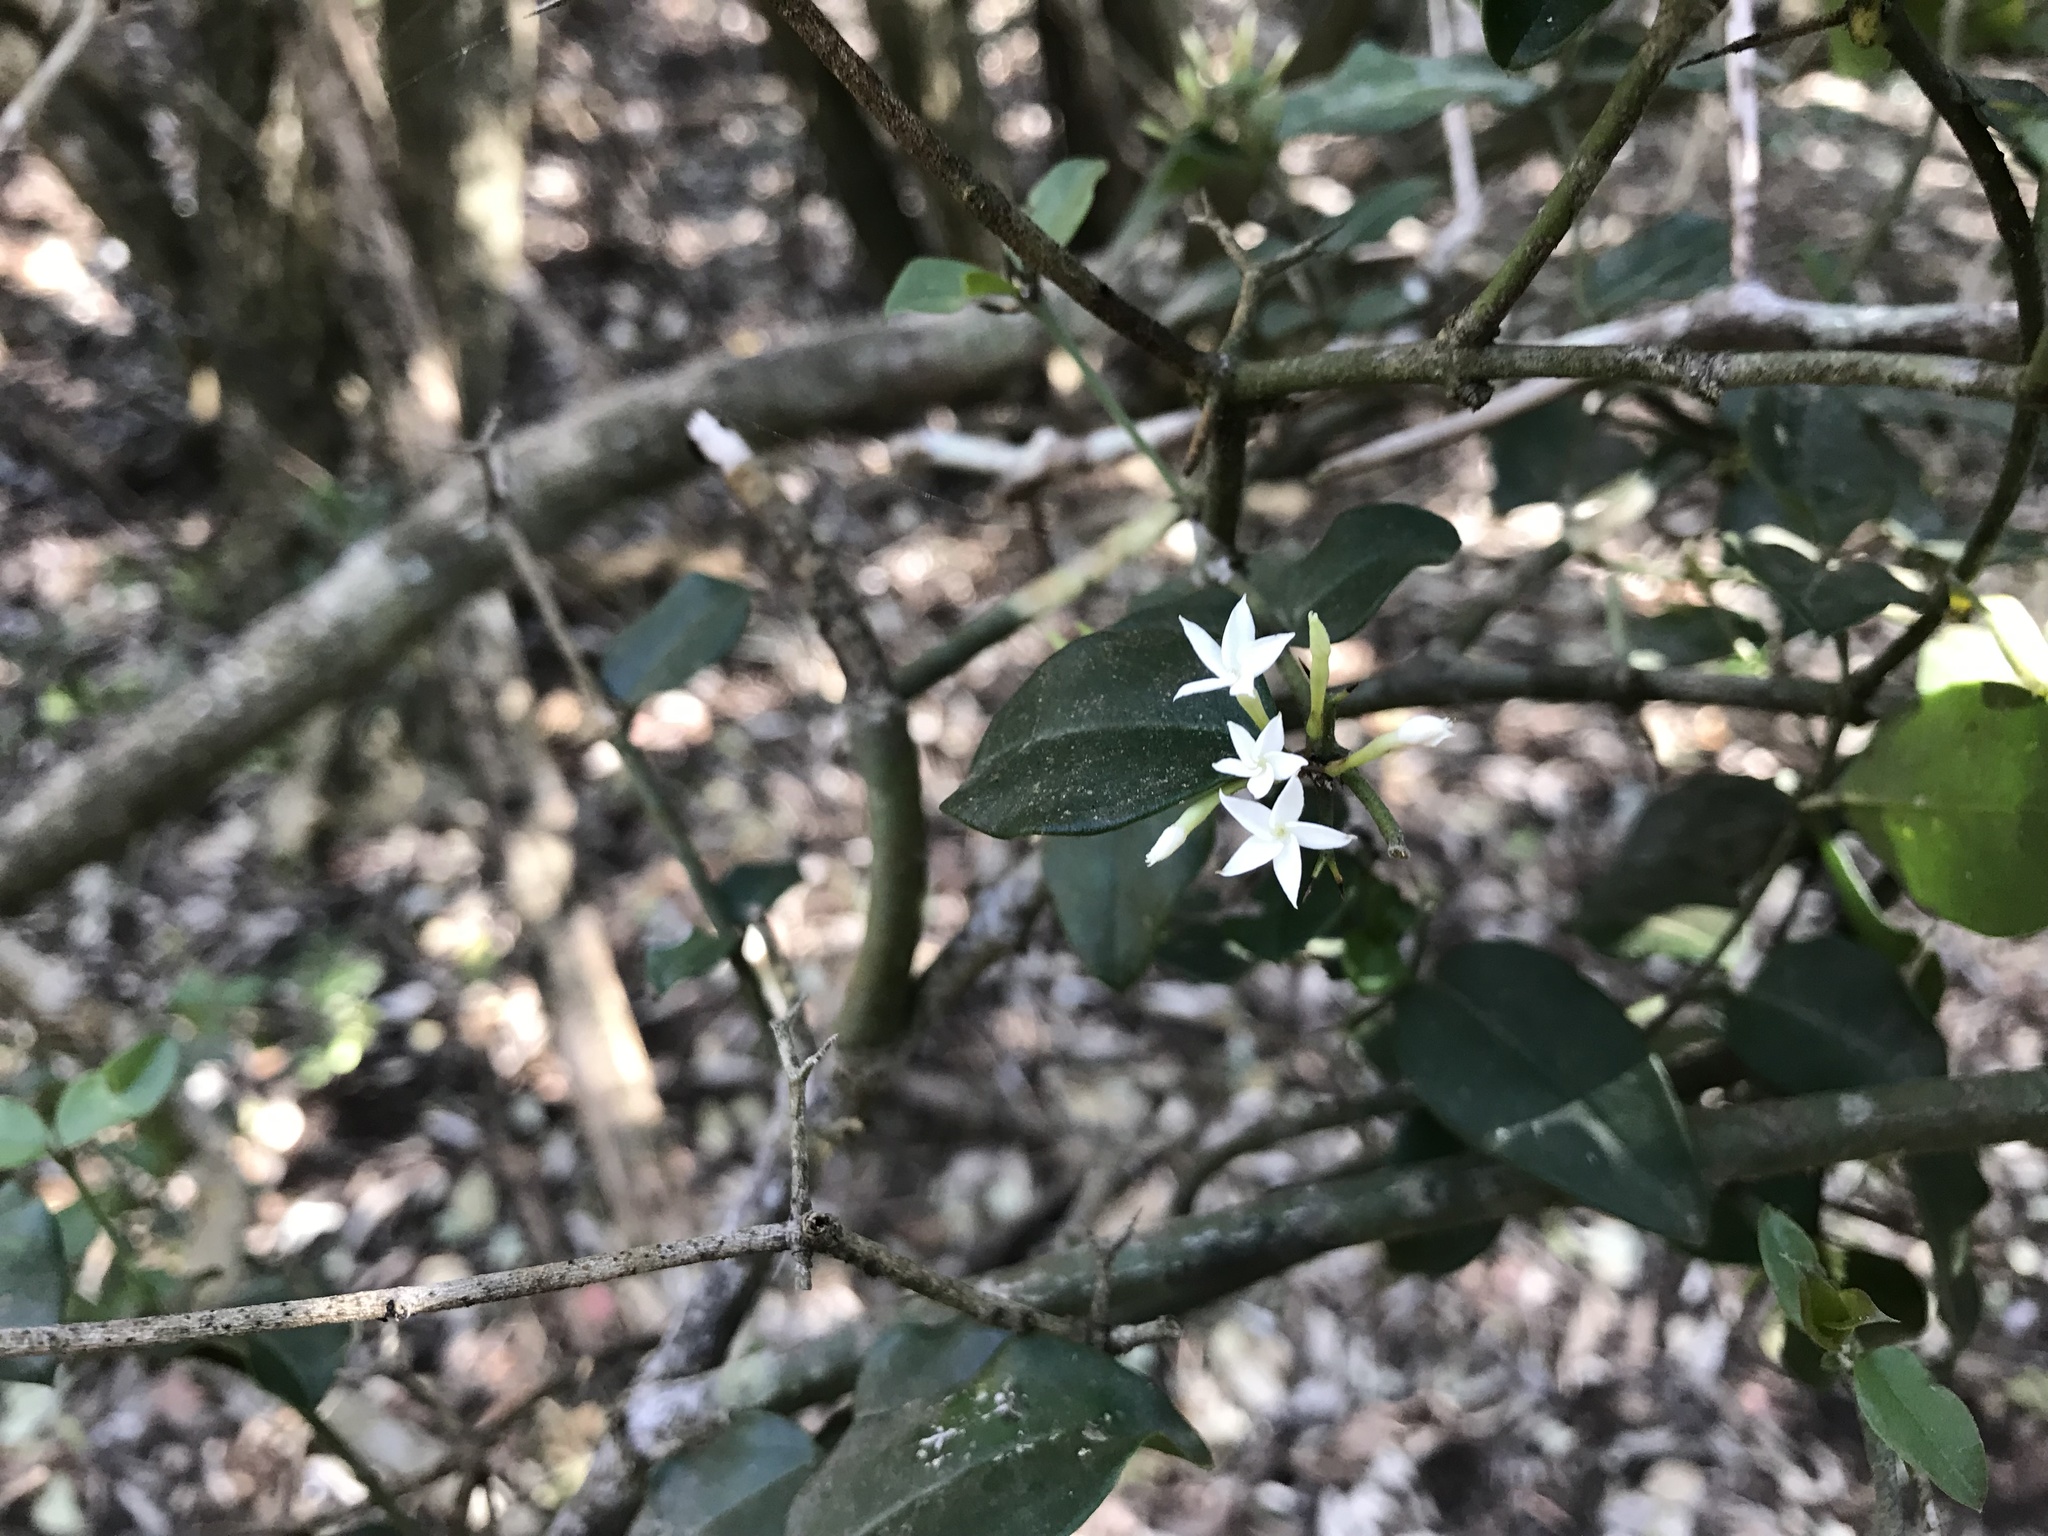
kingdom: Plantae
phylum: Tracheophyta
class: Magnoliopsida
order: Gentianales
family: Apocynaceae
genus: Carissa
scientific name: Carissa bispinosa
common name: Forest num-num
